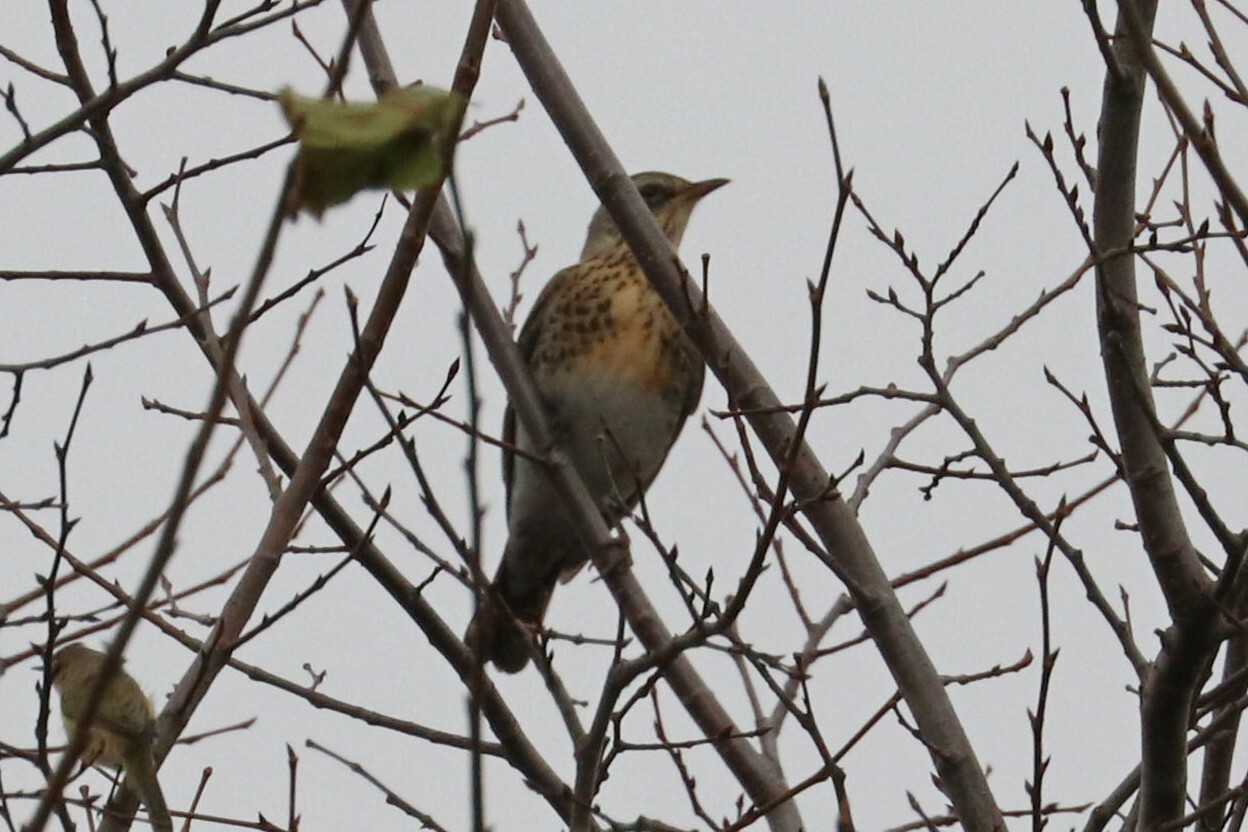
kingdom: Animalia
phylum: Chordata
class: Aves
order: Passeriformes
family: Turdidae
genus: Turdus
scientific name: Turdus pilaris
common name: Fieldfare
